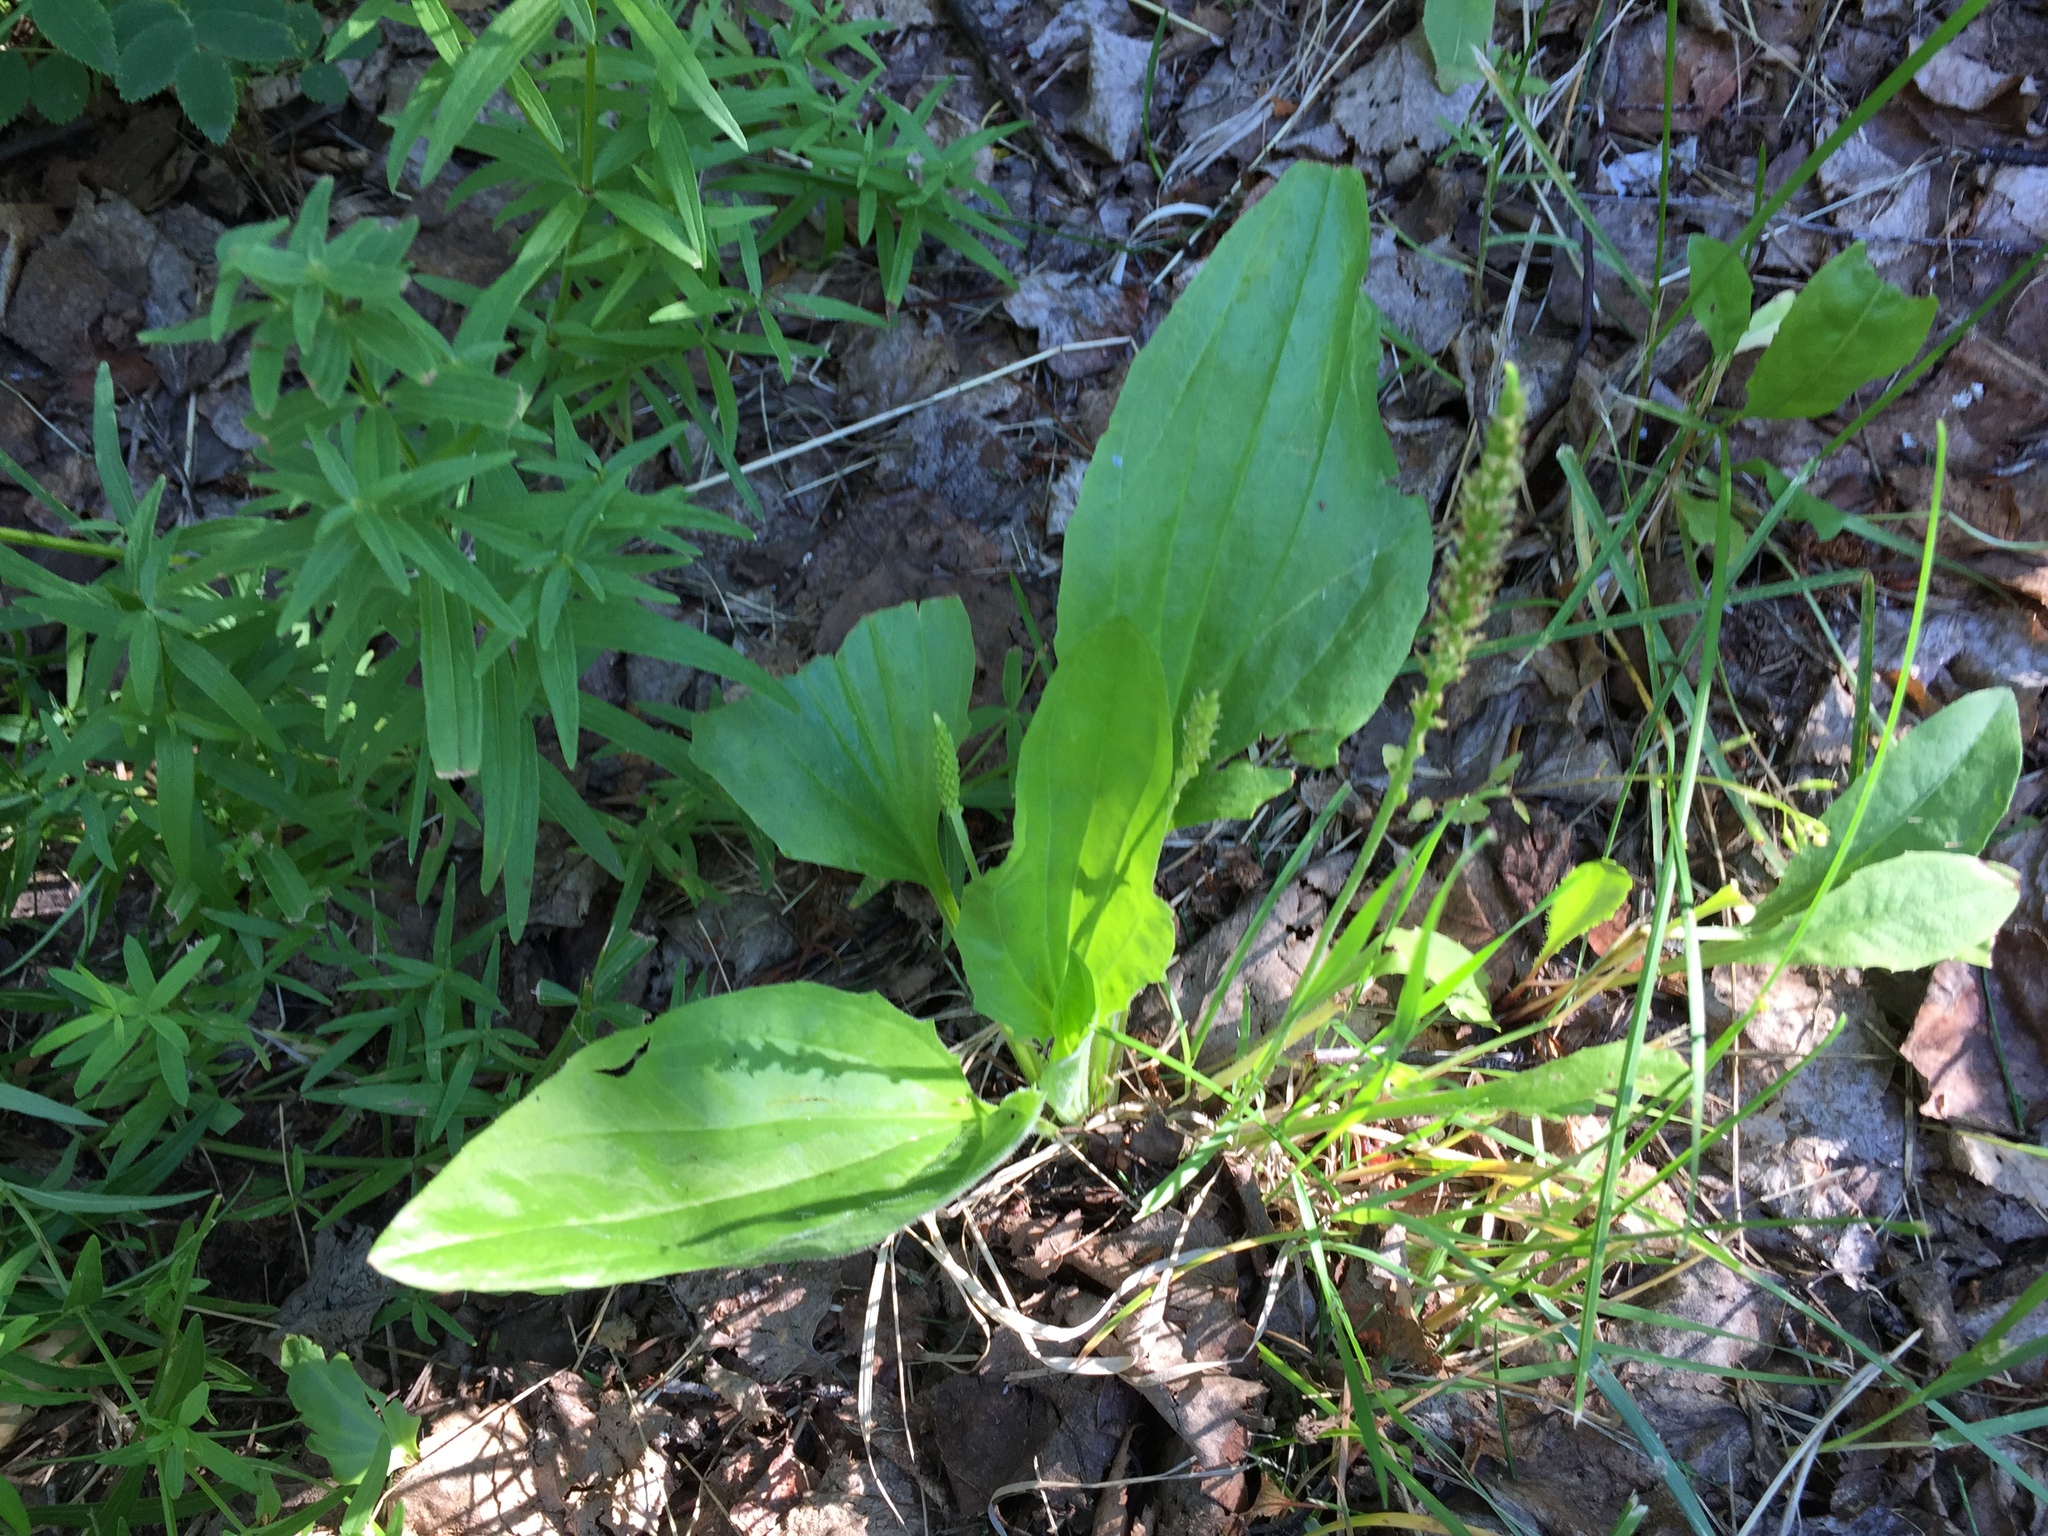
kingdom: Plantae
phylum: Tracheophyta
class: Magnoliopsida
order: Lamiales
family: Plantaginaceae
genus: Plantago
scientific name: Plantago major
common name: Common plantain
